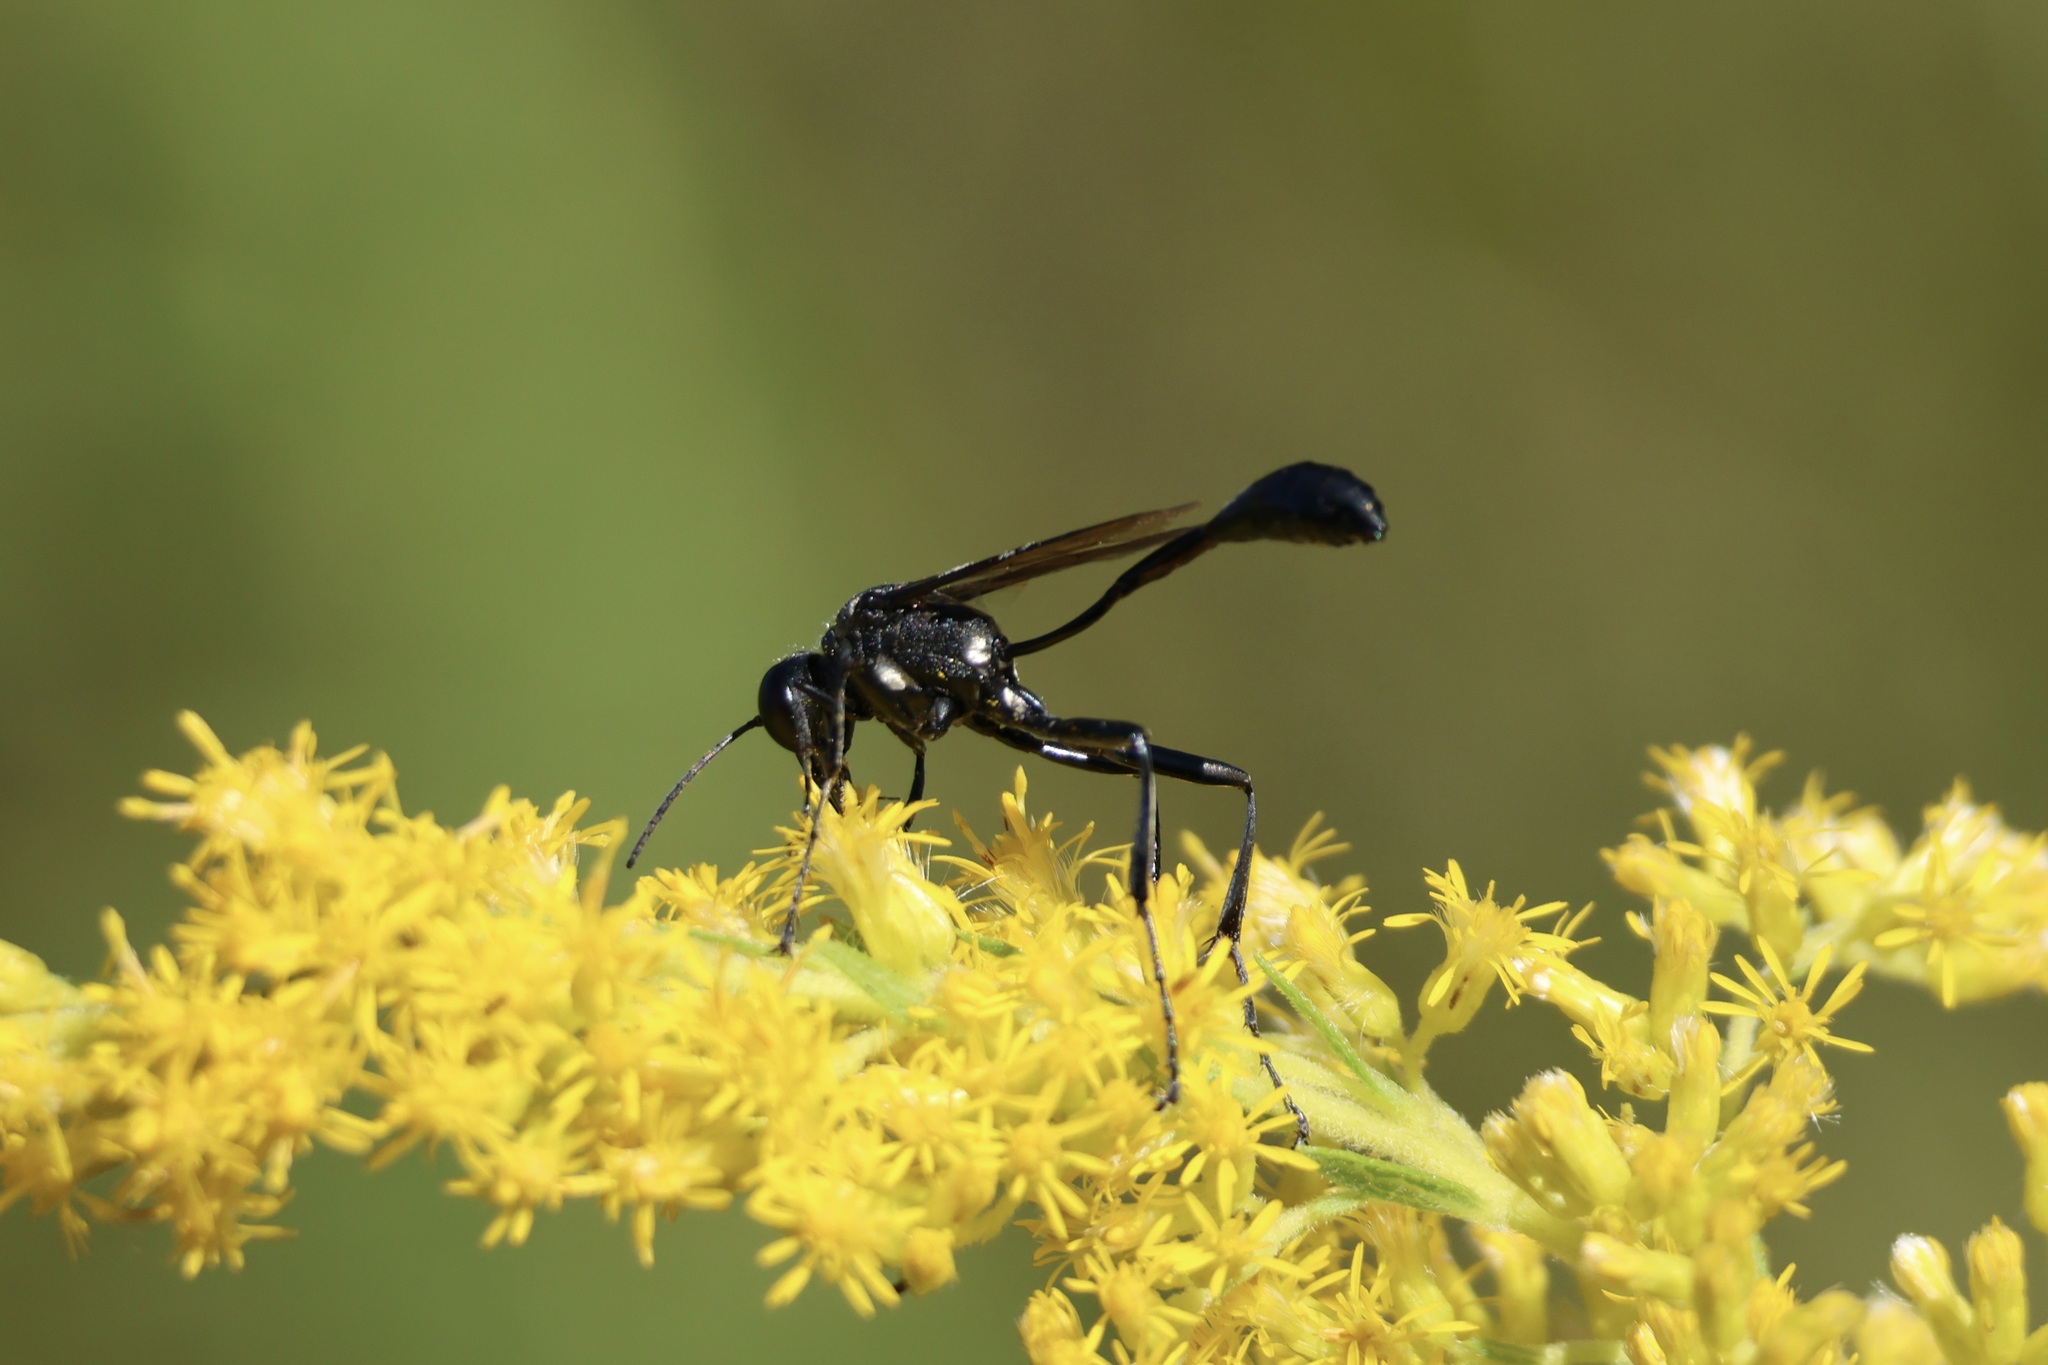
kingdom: Animalia
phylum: Arthropoda
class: Insecta
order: Hymenoptera
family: Sphecidae
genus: Eremnophila
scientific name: Eremnophila aureonotata
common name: Gold-marked thread-waisted wasp
